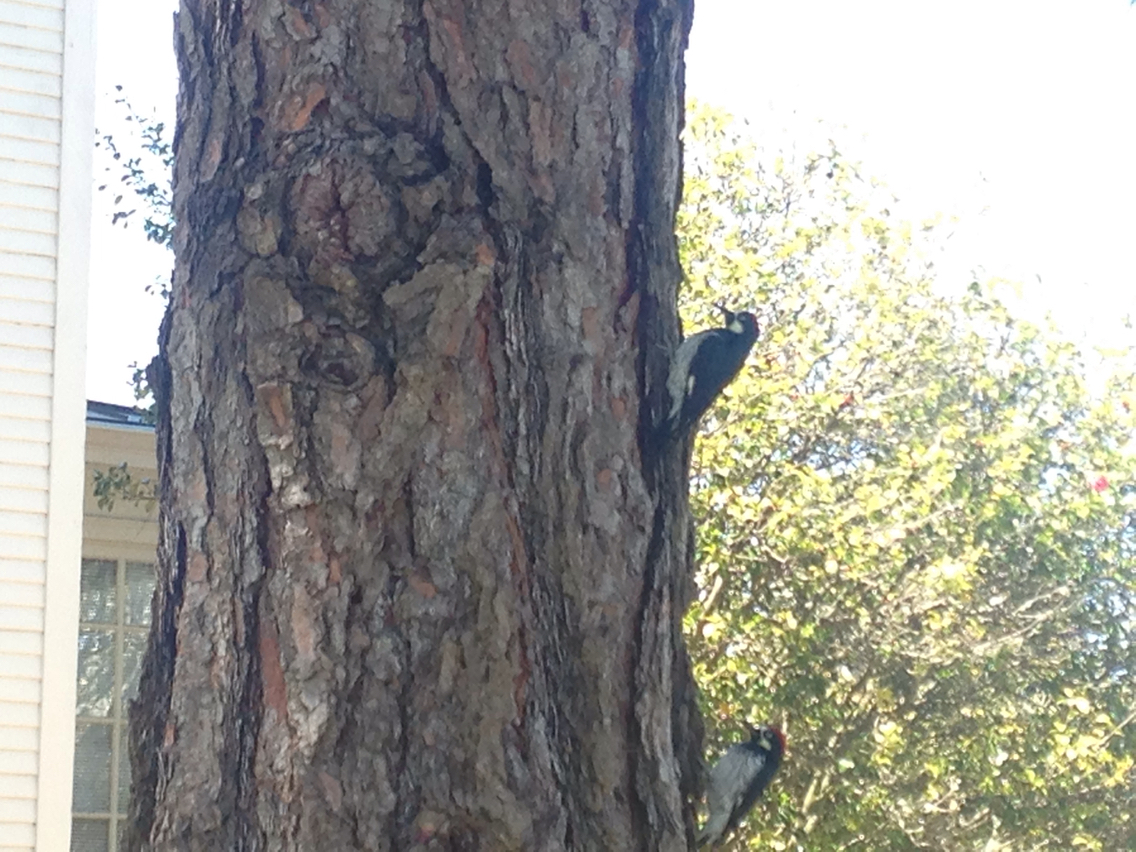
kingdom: Animalia
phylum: Chordata
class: Aves
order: Piciformes
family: Picidae
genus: Melanerpes
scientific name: Melanerpes formicivorus
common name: Acorn woodpecker
